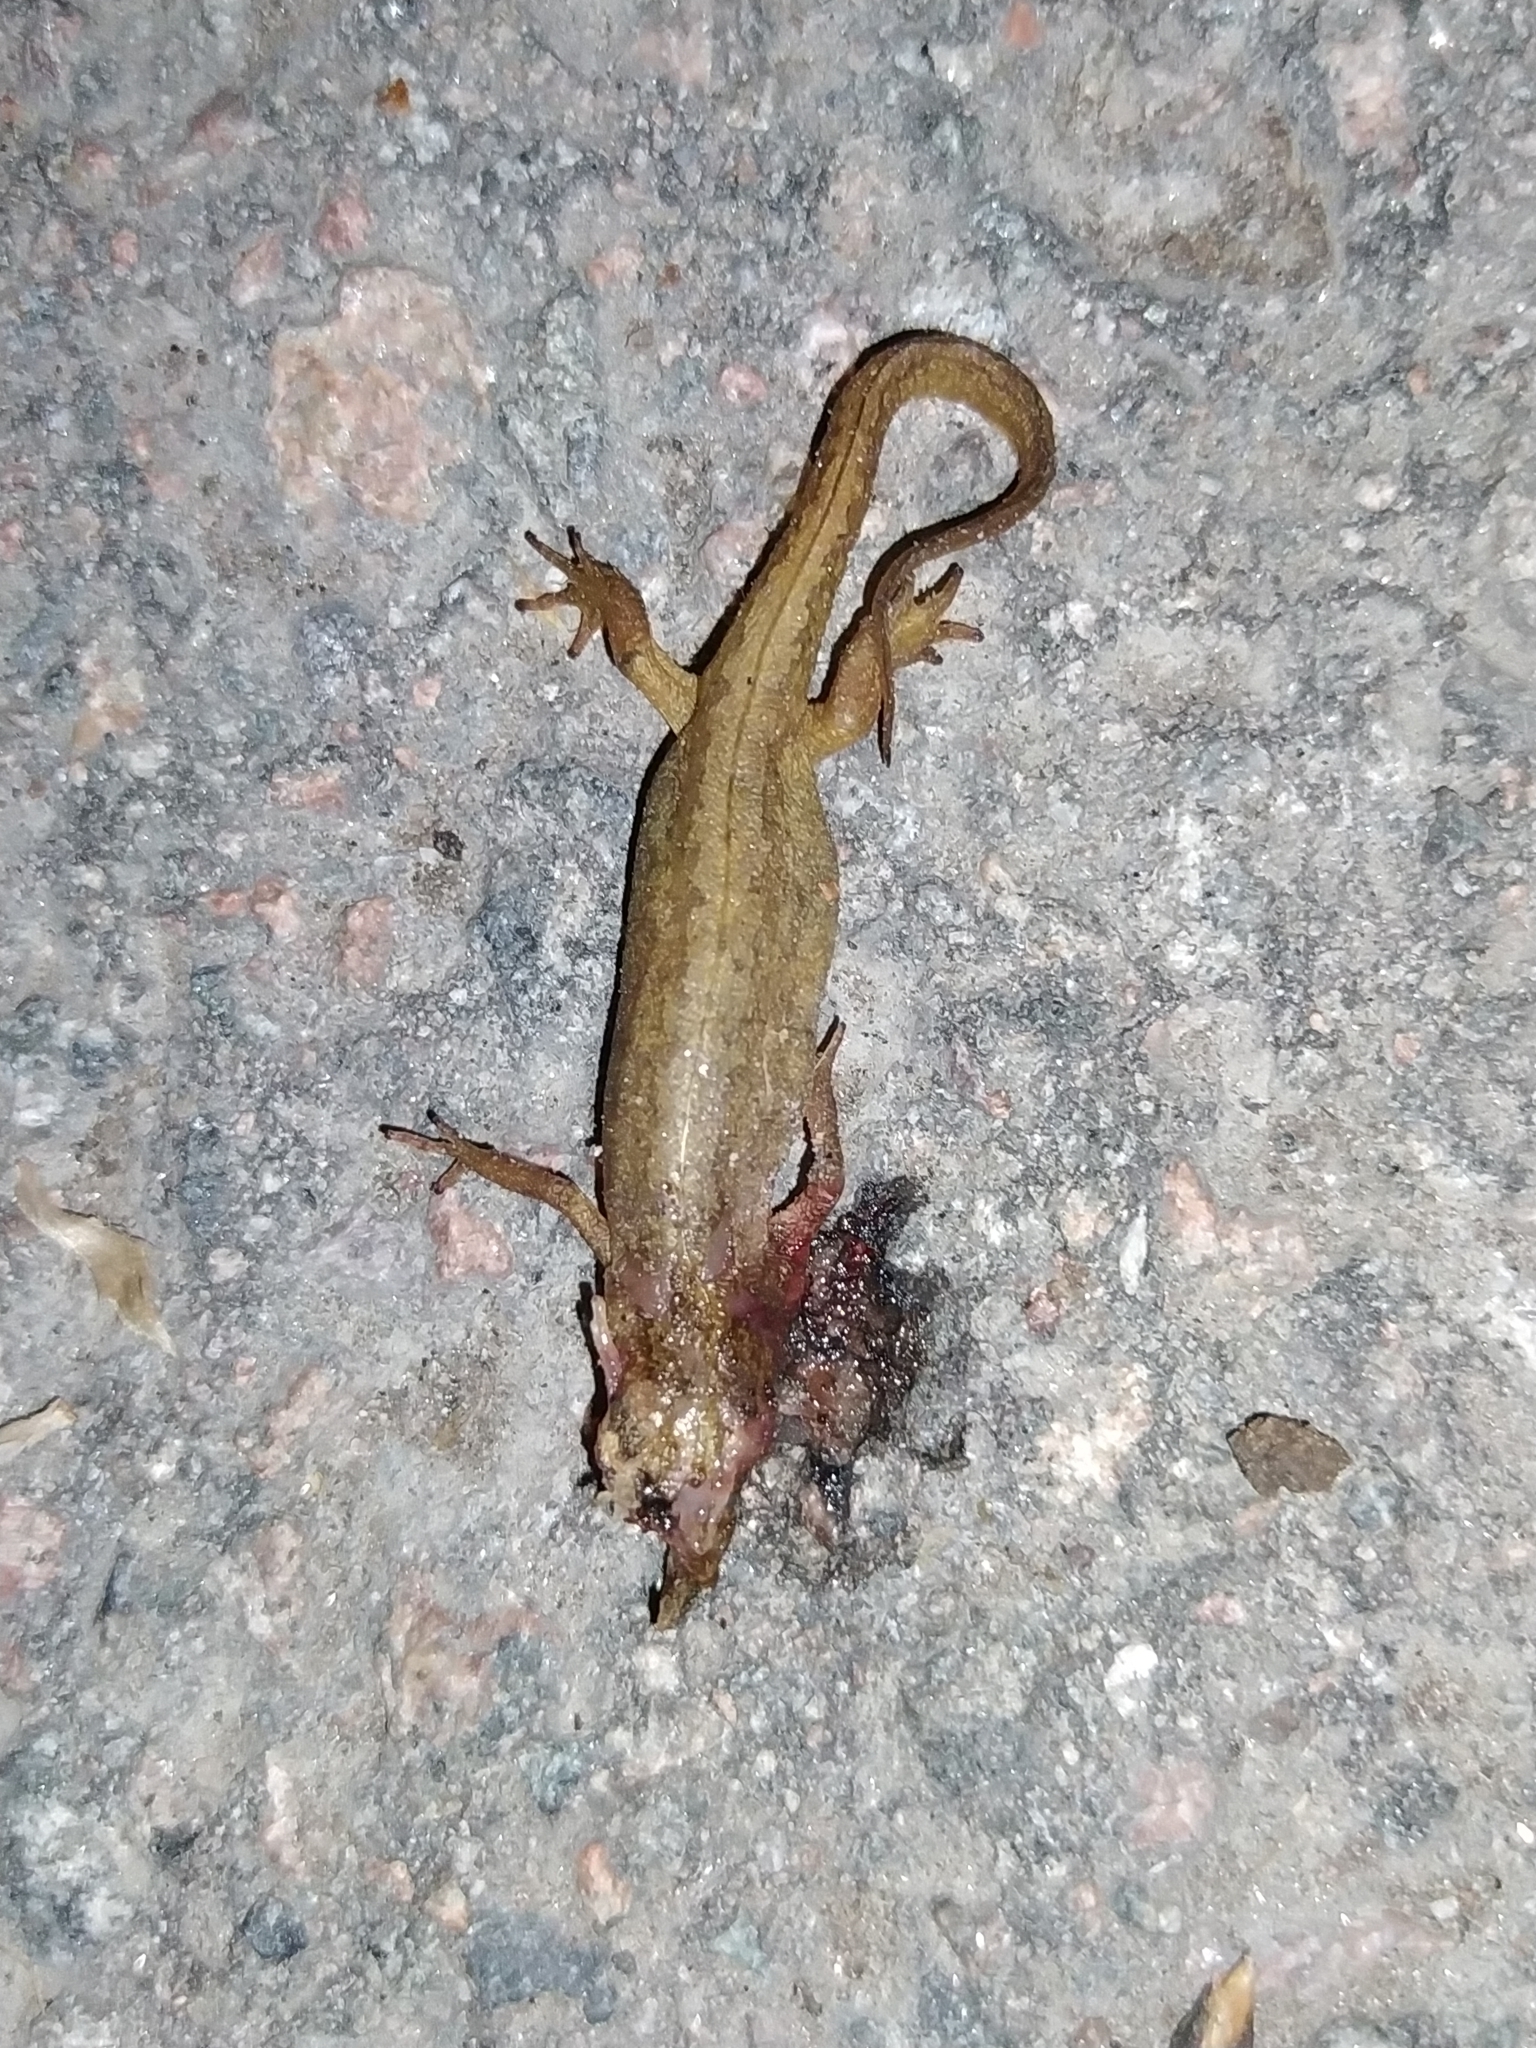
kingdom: Animalia
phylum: Chordata
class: Amphibia
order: Caudata
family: Salamandridae
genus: Lissotriton
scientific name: Lissotriton vulgaris
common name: Smooth newt
